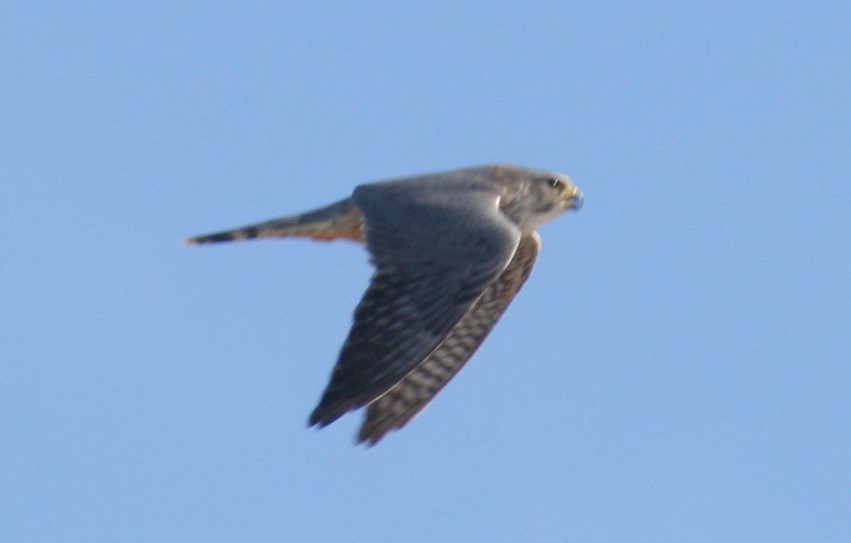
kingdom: Animalia
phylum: Chordata
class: Aves
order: Falconiformes
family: Falconidae
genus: Falco
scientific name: Falco columbarius
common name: Merlin
